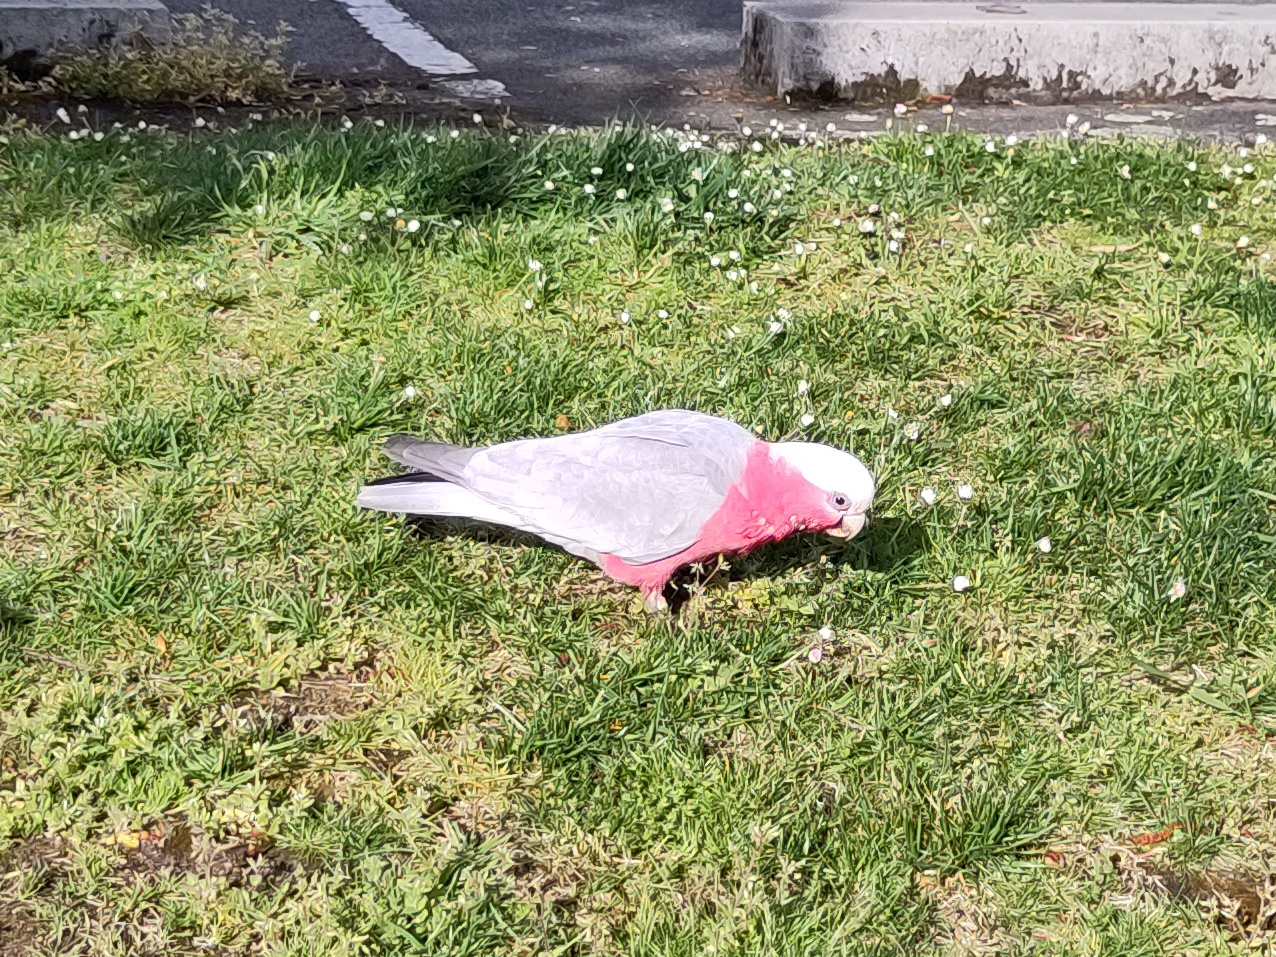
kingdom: Animalia
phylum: Chordata
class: Aves
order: Psittaciformes
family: Psittacidae
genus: Eolophus
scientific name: Eolophus roseicapilla
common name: Galah
